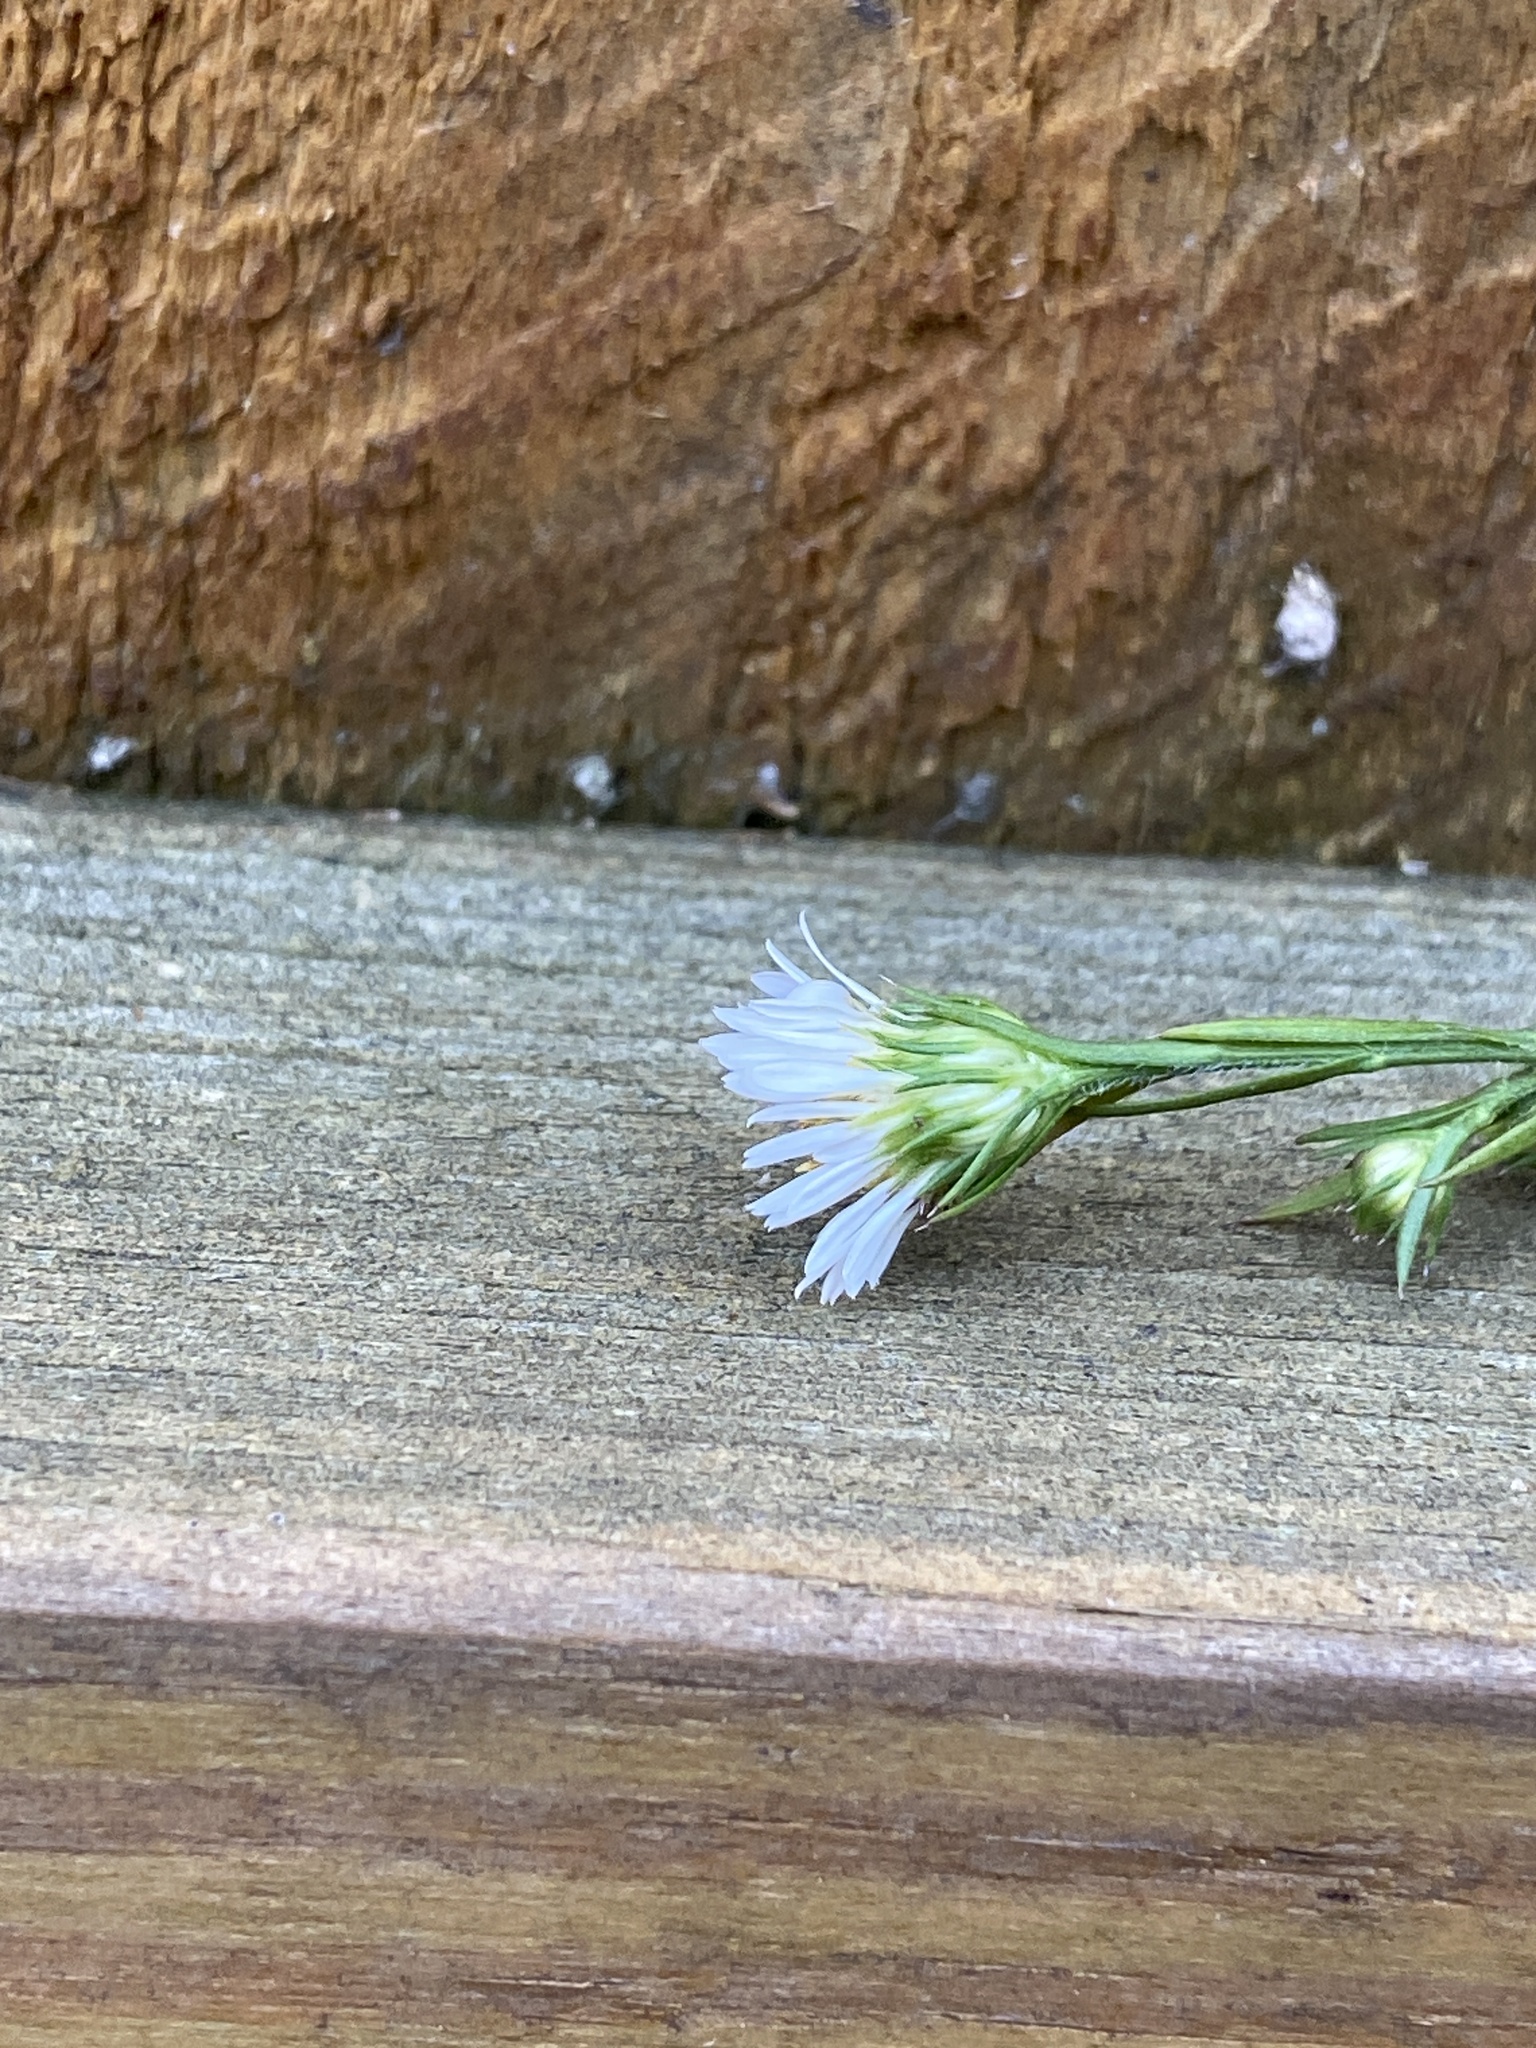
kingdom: Plantae
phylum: Tracheophyta
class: Magnoliopsida
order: Asterales
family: Asteraceae
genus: Symphyotrichum
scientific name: Symphyotrichum pilosum
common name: Awl aster
